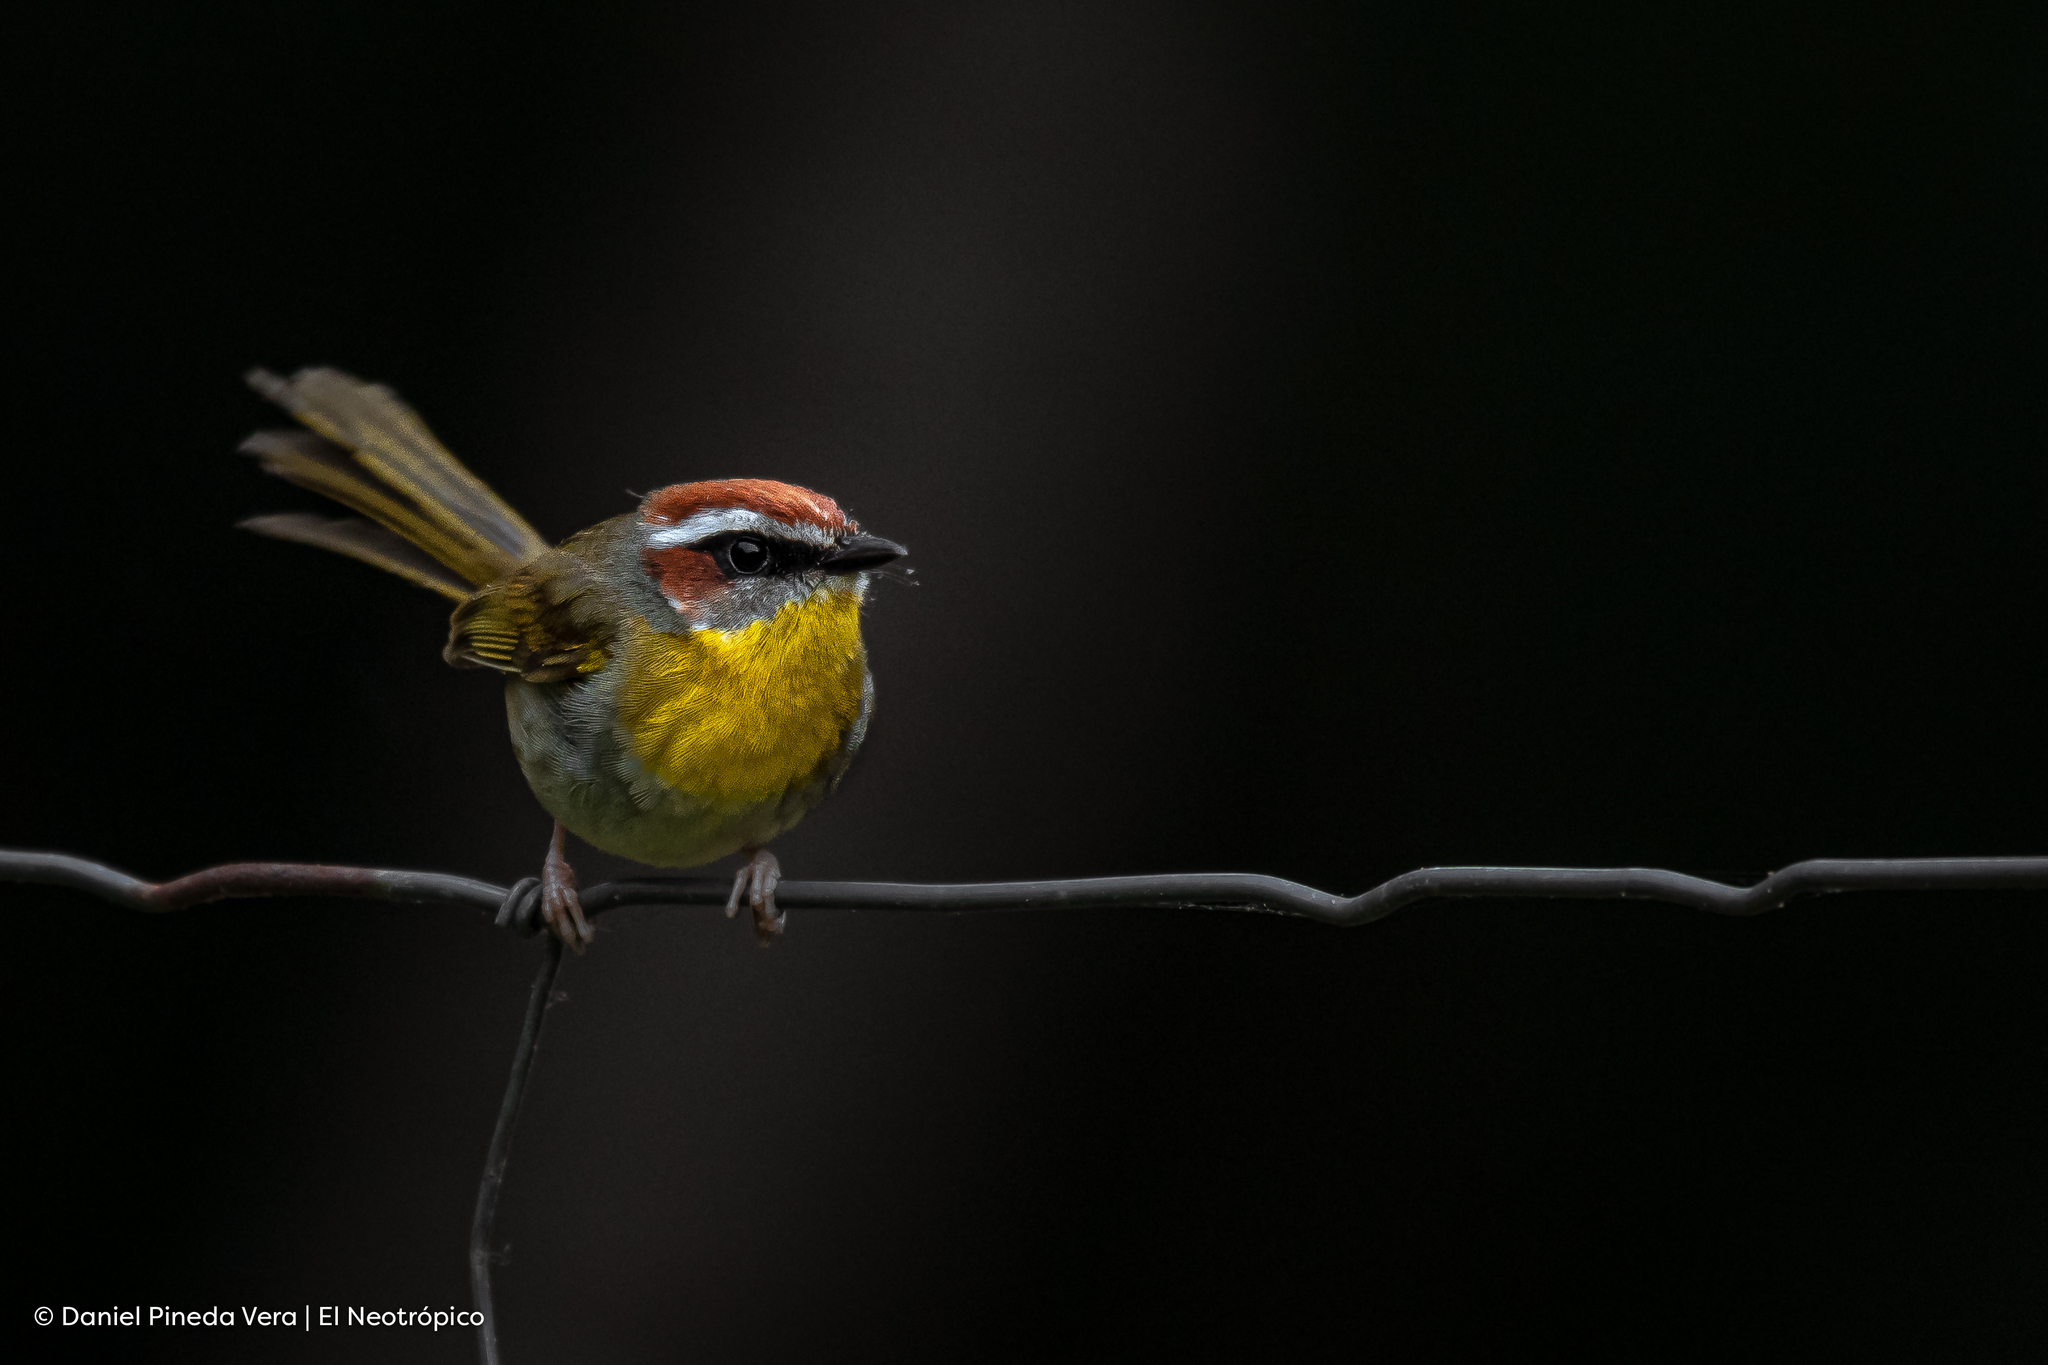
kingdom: Animalia
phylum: Chordata
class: Aves
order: Passeriformes
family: Parulidae
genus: Basileuterus
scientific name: Basileuterus rufifrons
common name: Rufous-capped warbler
